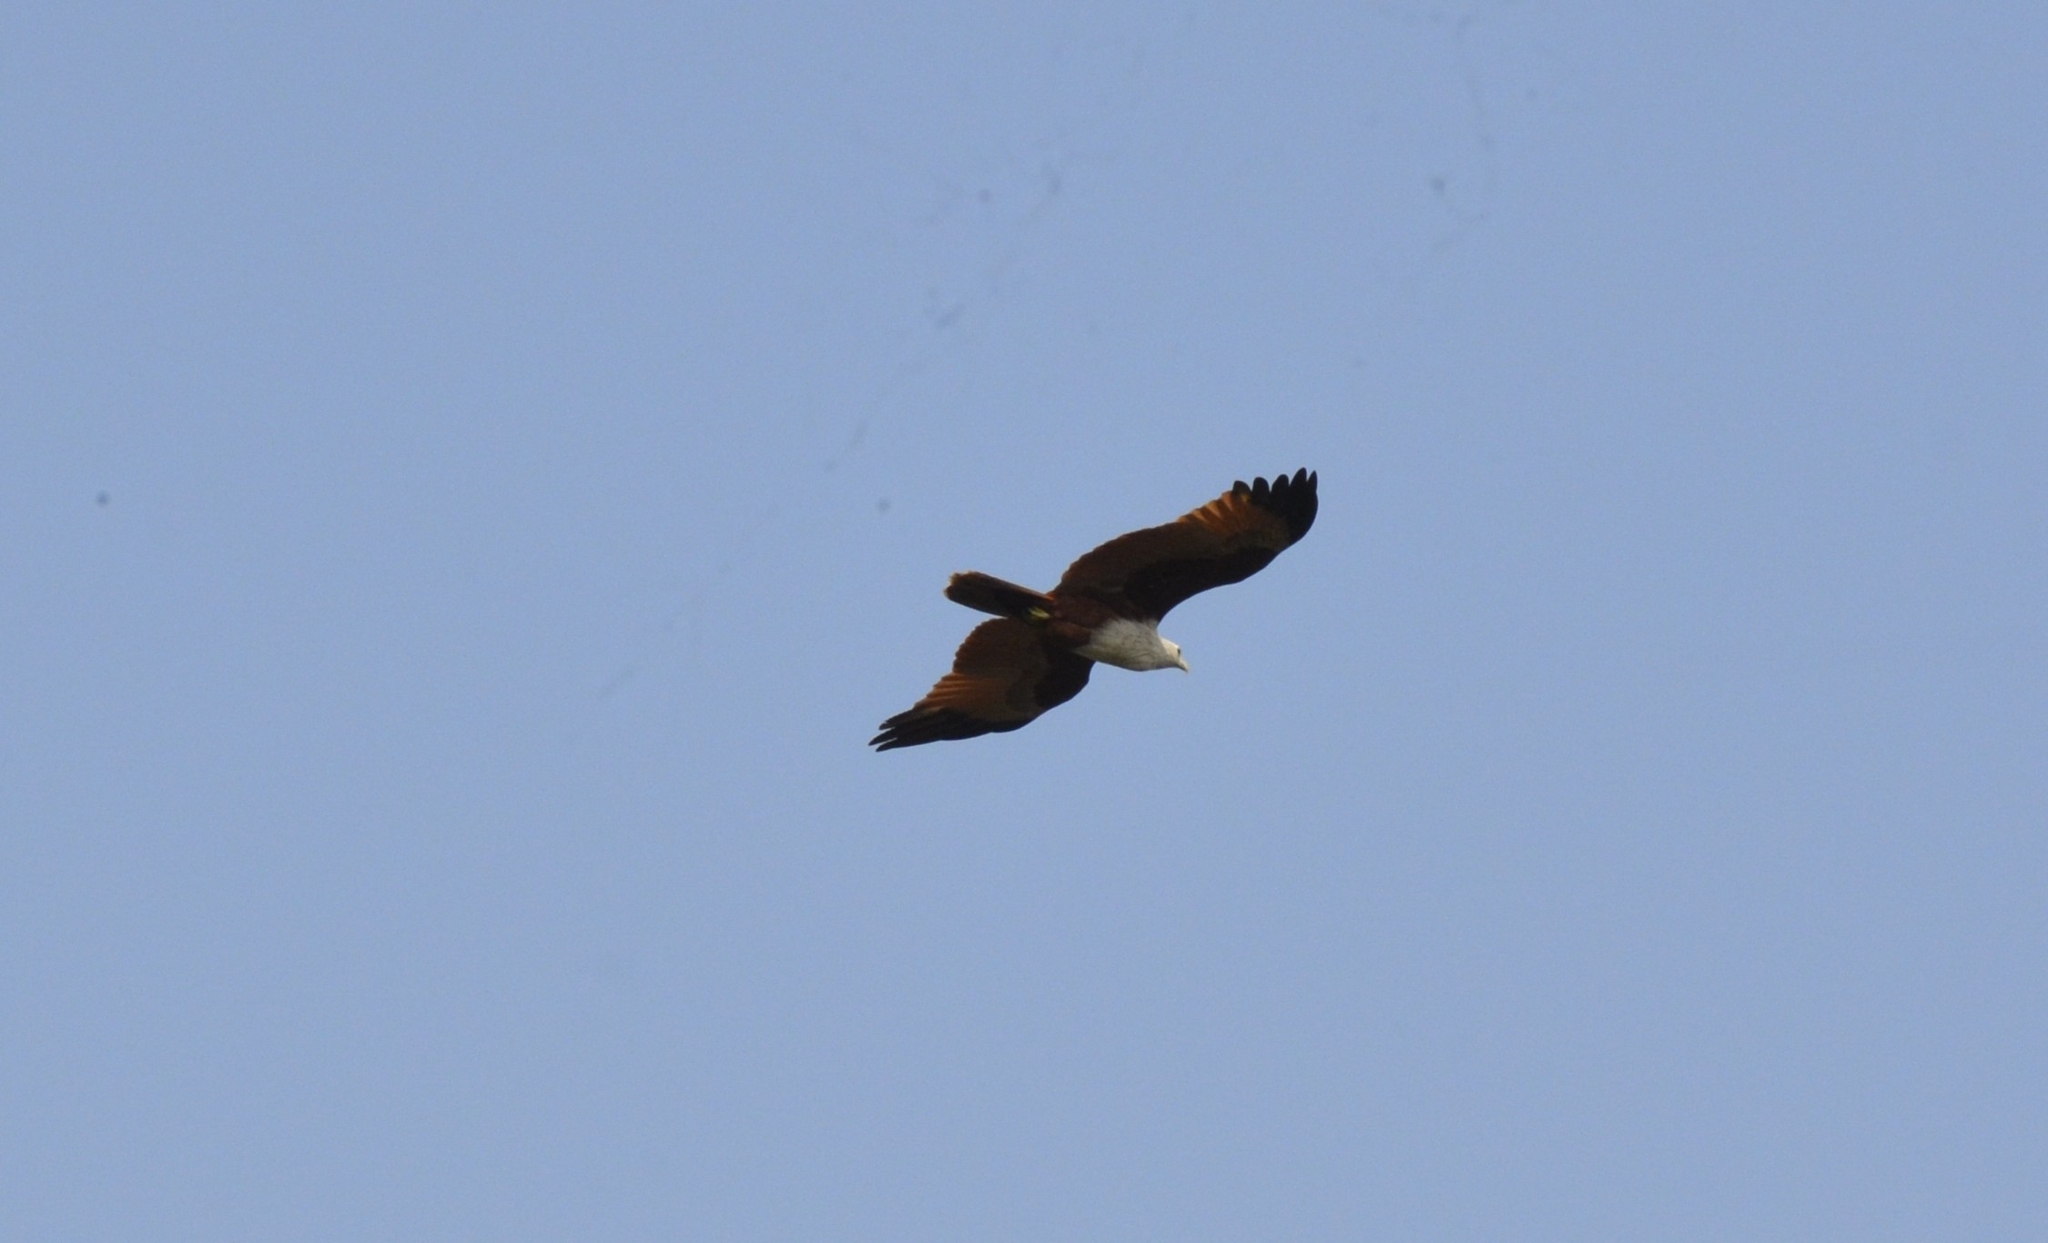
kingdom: Animalia
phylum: Chordata
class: Aves
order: Accipitriformes
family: Accipitridae
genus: Haliastur
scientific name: Haliastur indus
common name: Brahminy kite
